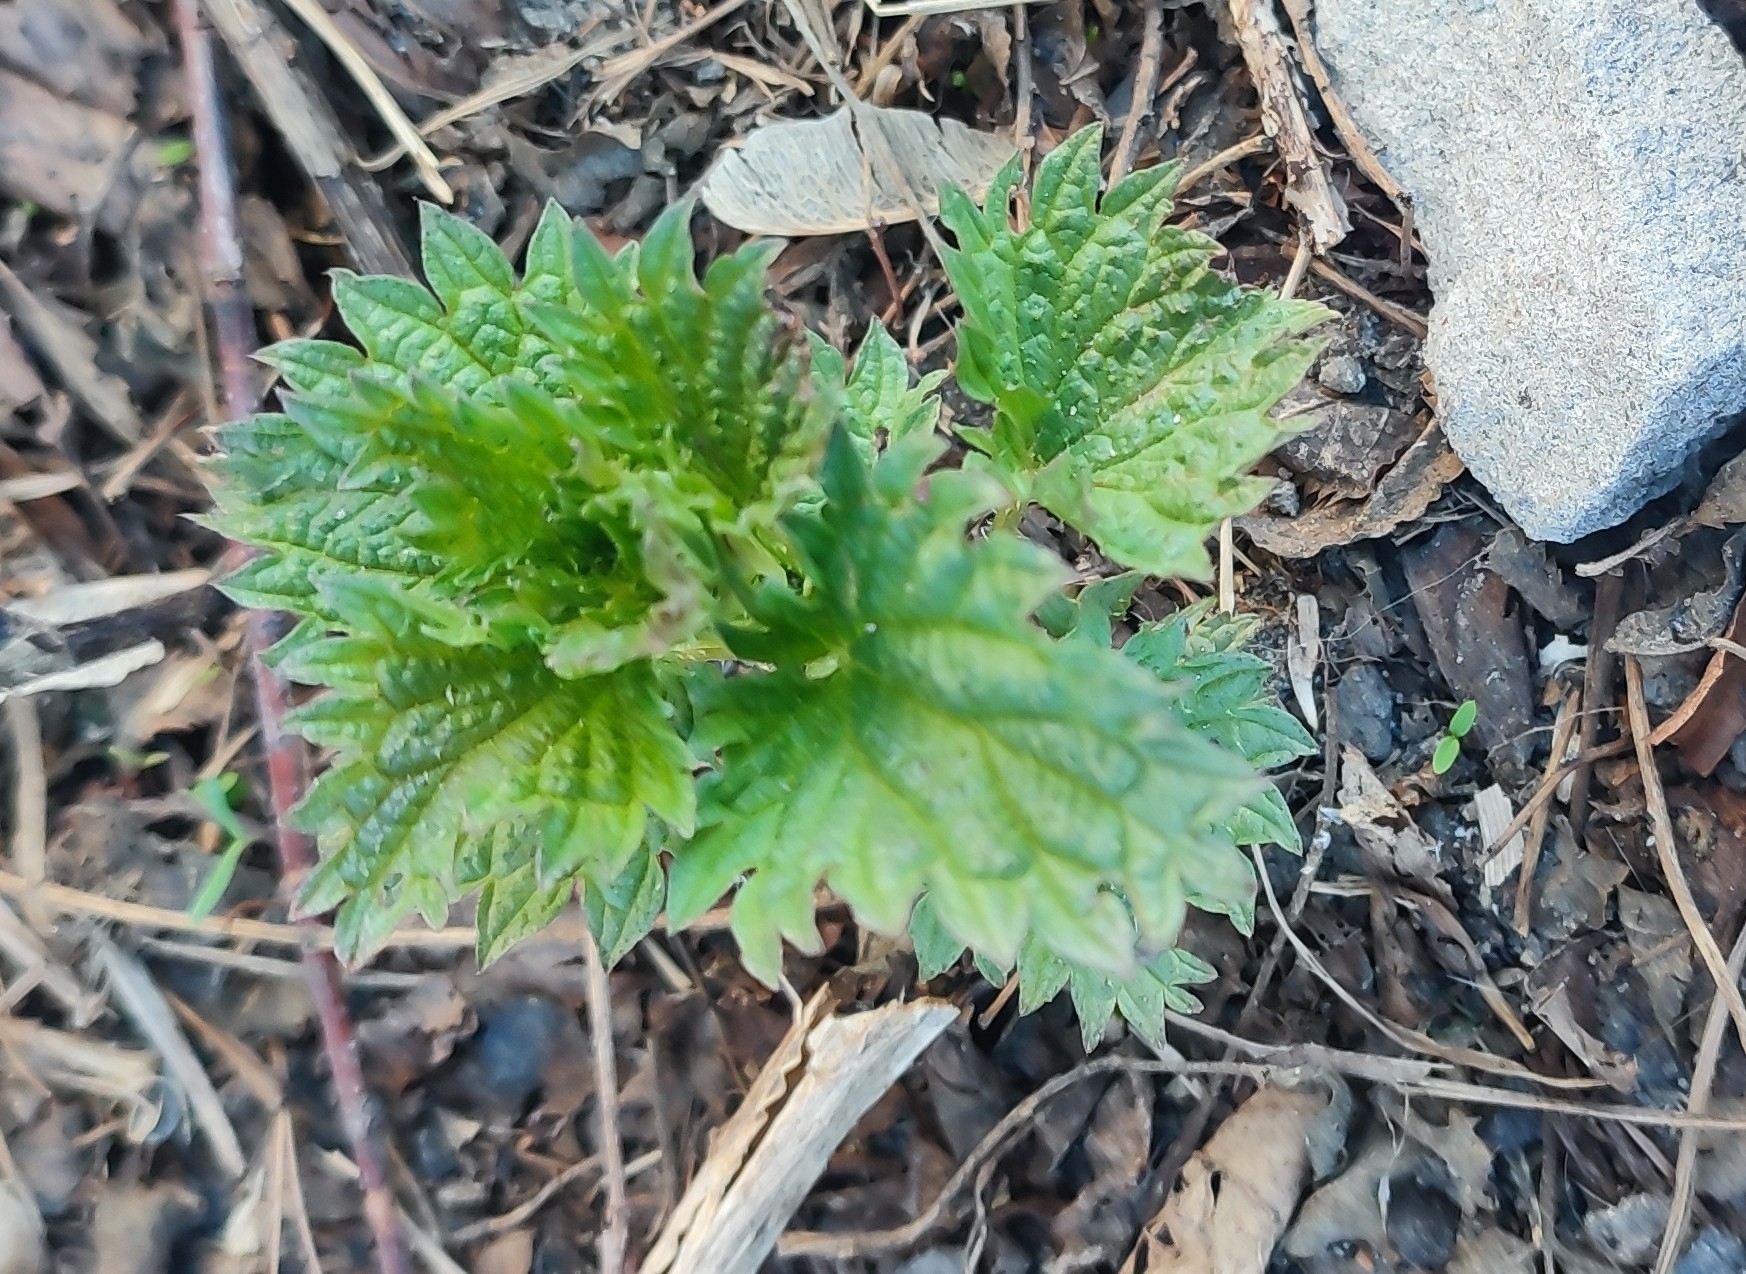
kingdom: Plantae
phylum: Tracheophyta
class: Magnoliopsida
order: Rosales
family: Urticaceae
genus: Urtica
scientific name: Urtica dioica
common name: Common nettle
